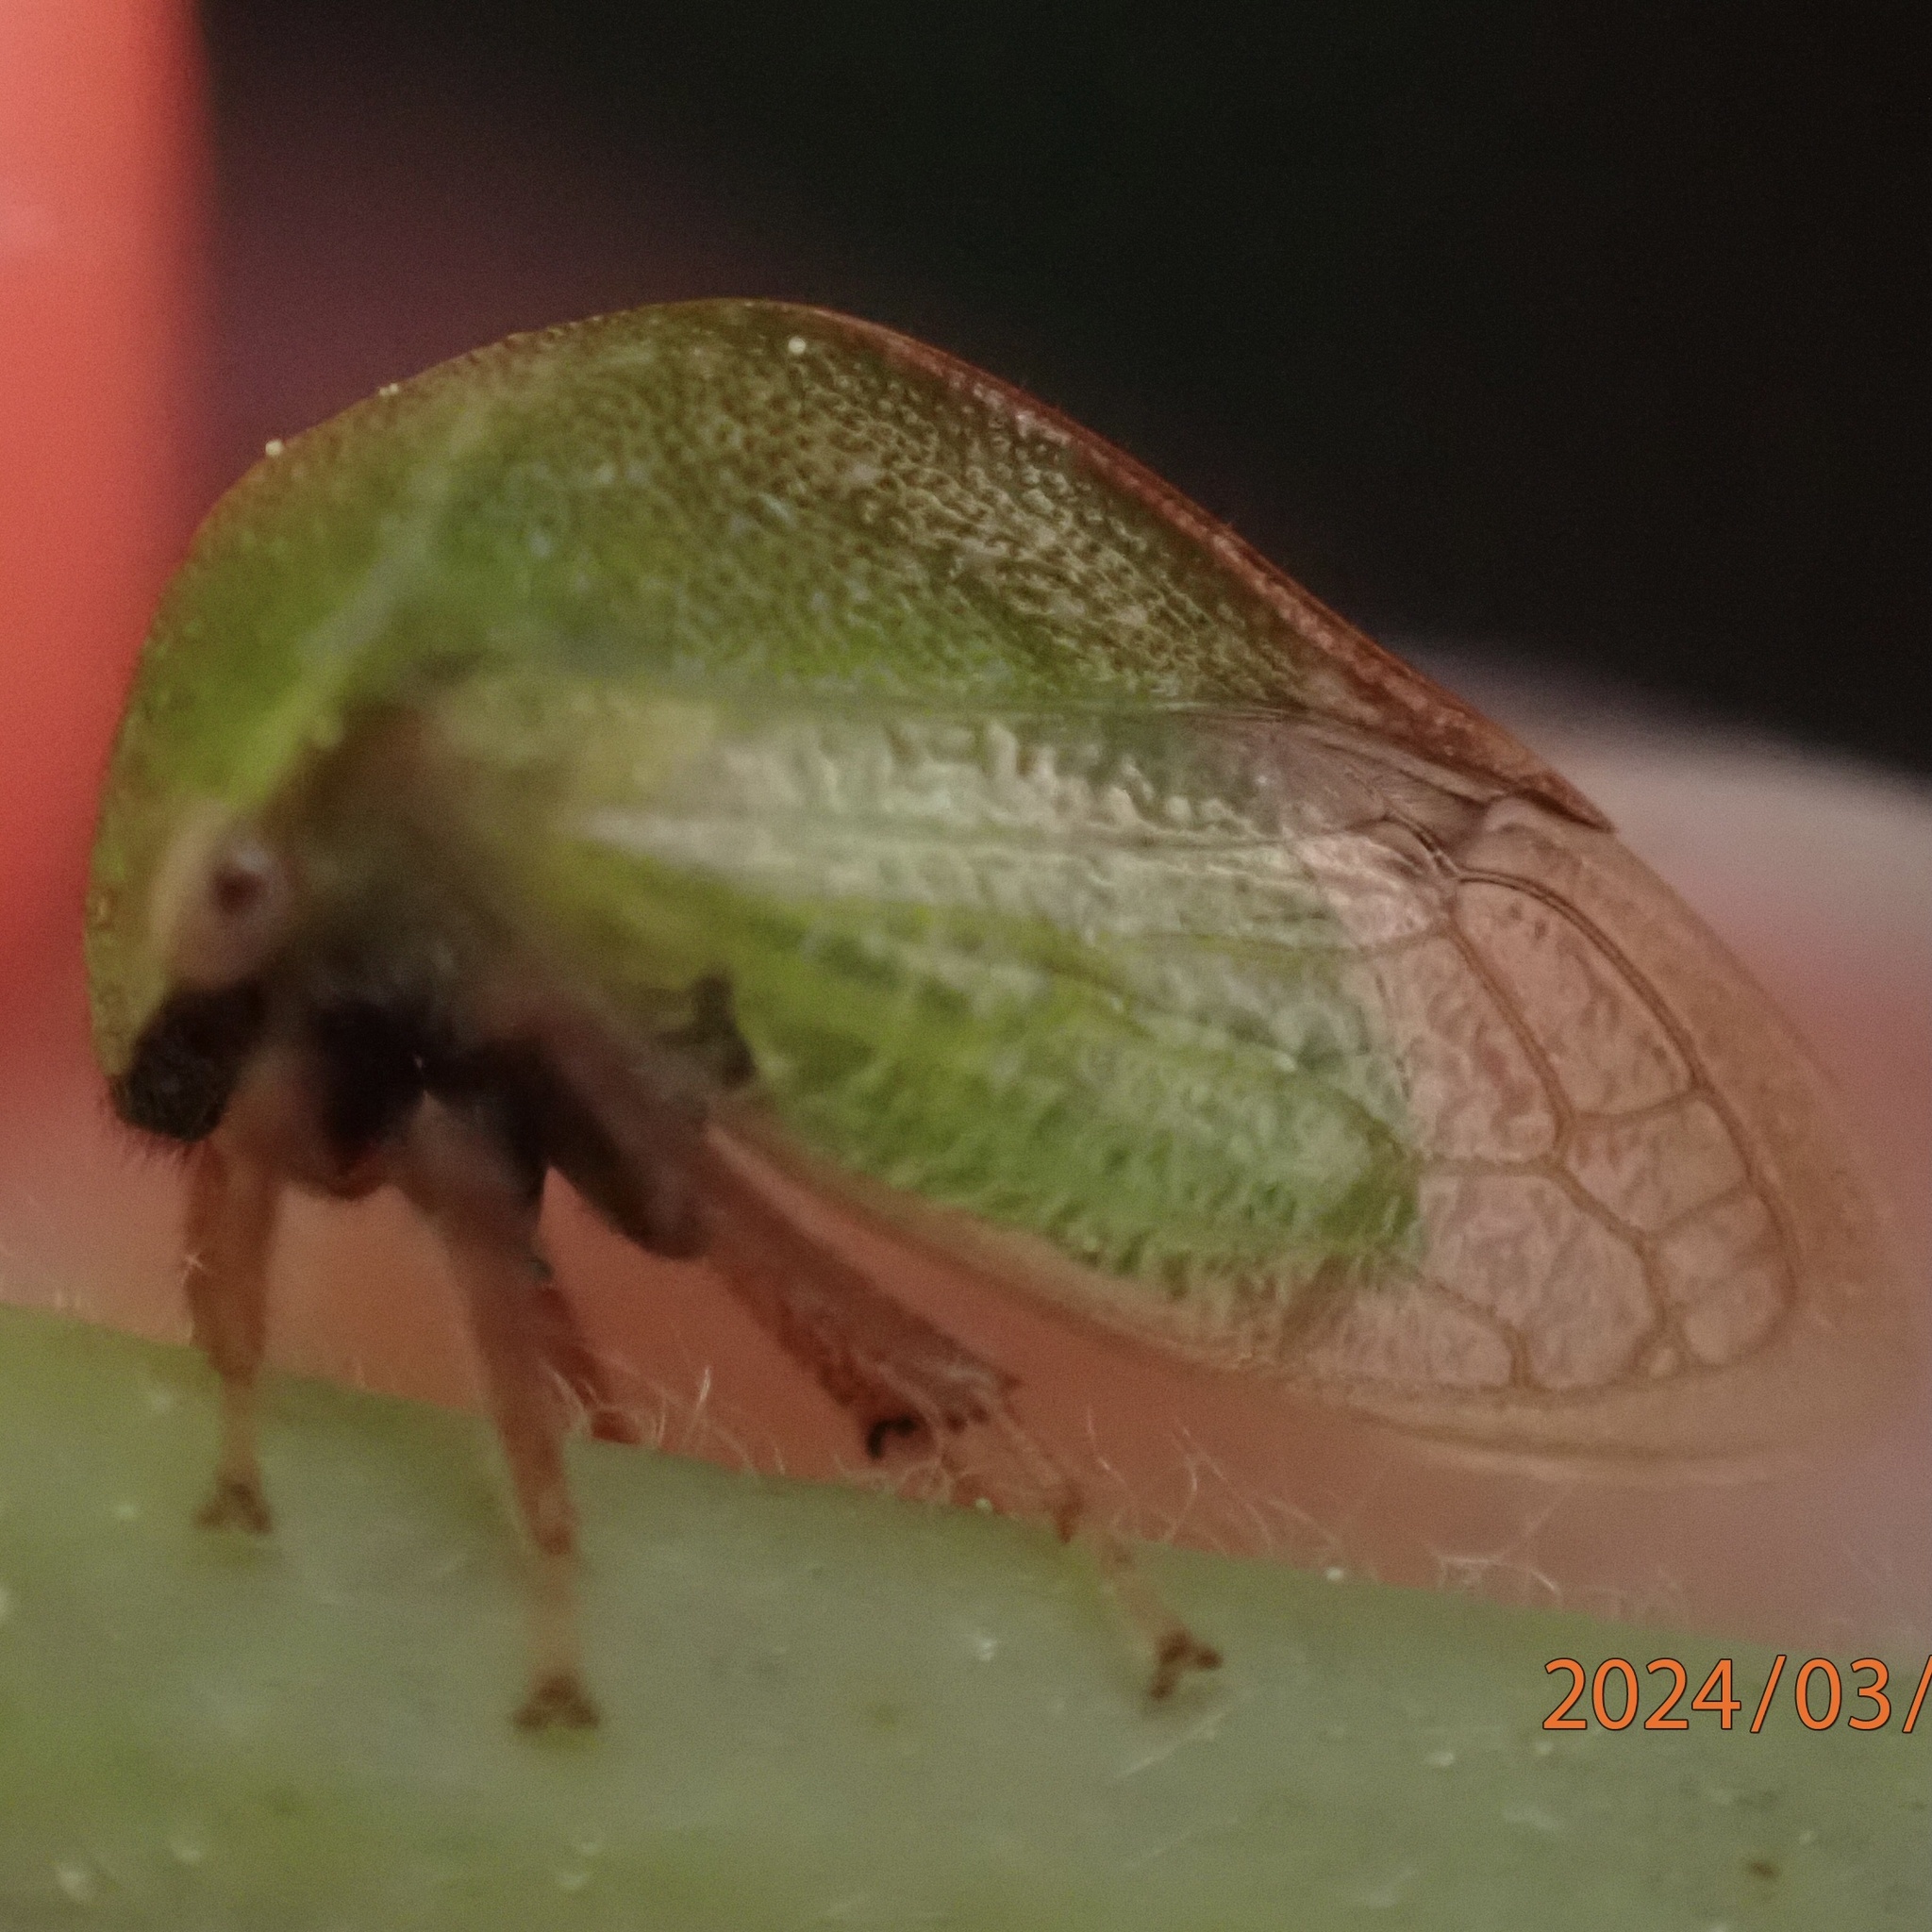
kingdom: Animalia
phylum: Arthropoda
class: Insecta
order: Hemiptera
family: Membracidae
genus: Stictocephala
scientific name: Stictocephala lutea
